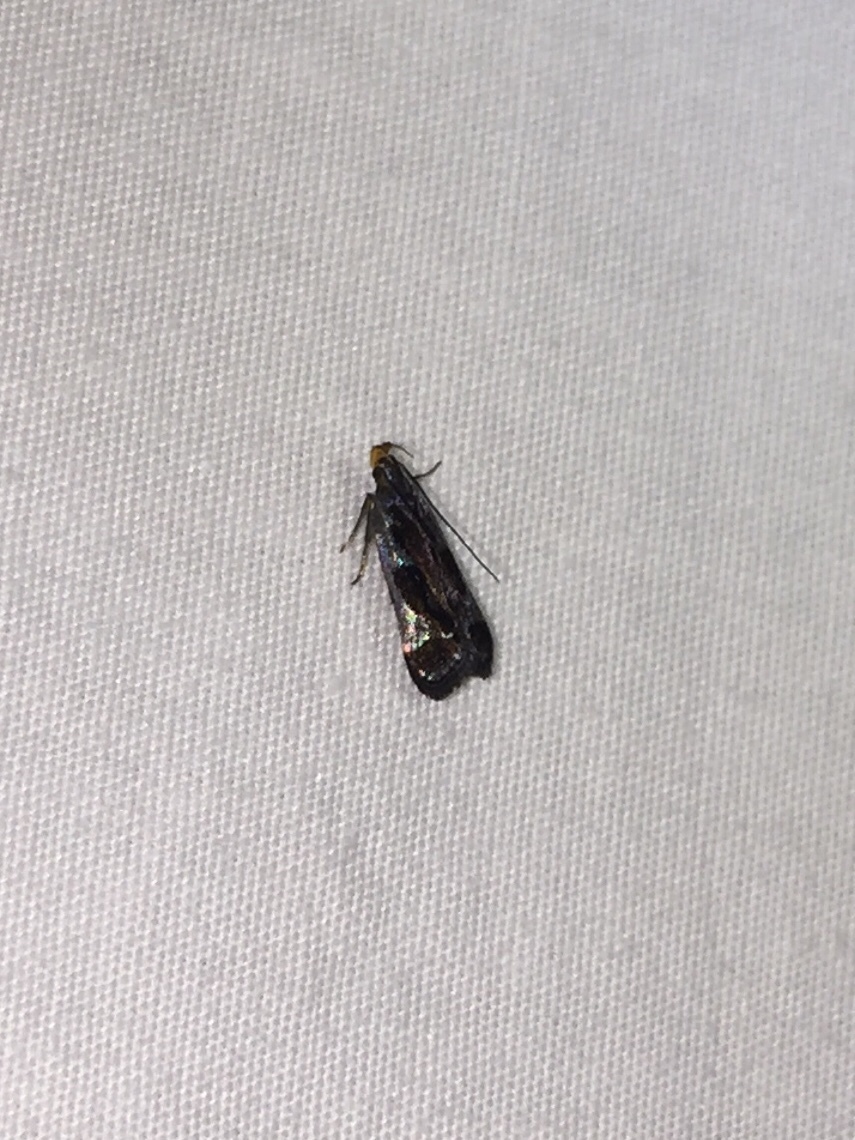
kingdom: Animalia
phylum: Arthropoda
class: Insecta
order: Lepidoptera
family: Gelechiidae
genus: Dichomeris
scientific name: Dichomeris ochripalpella
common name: Shining dichomeris moth
